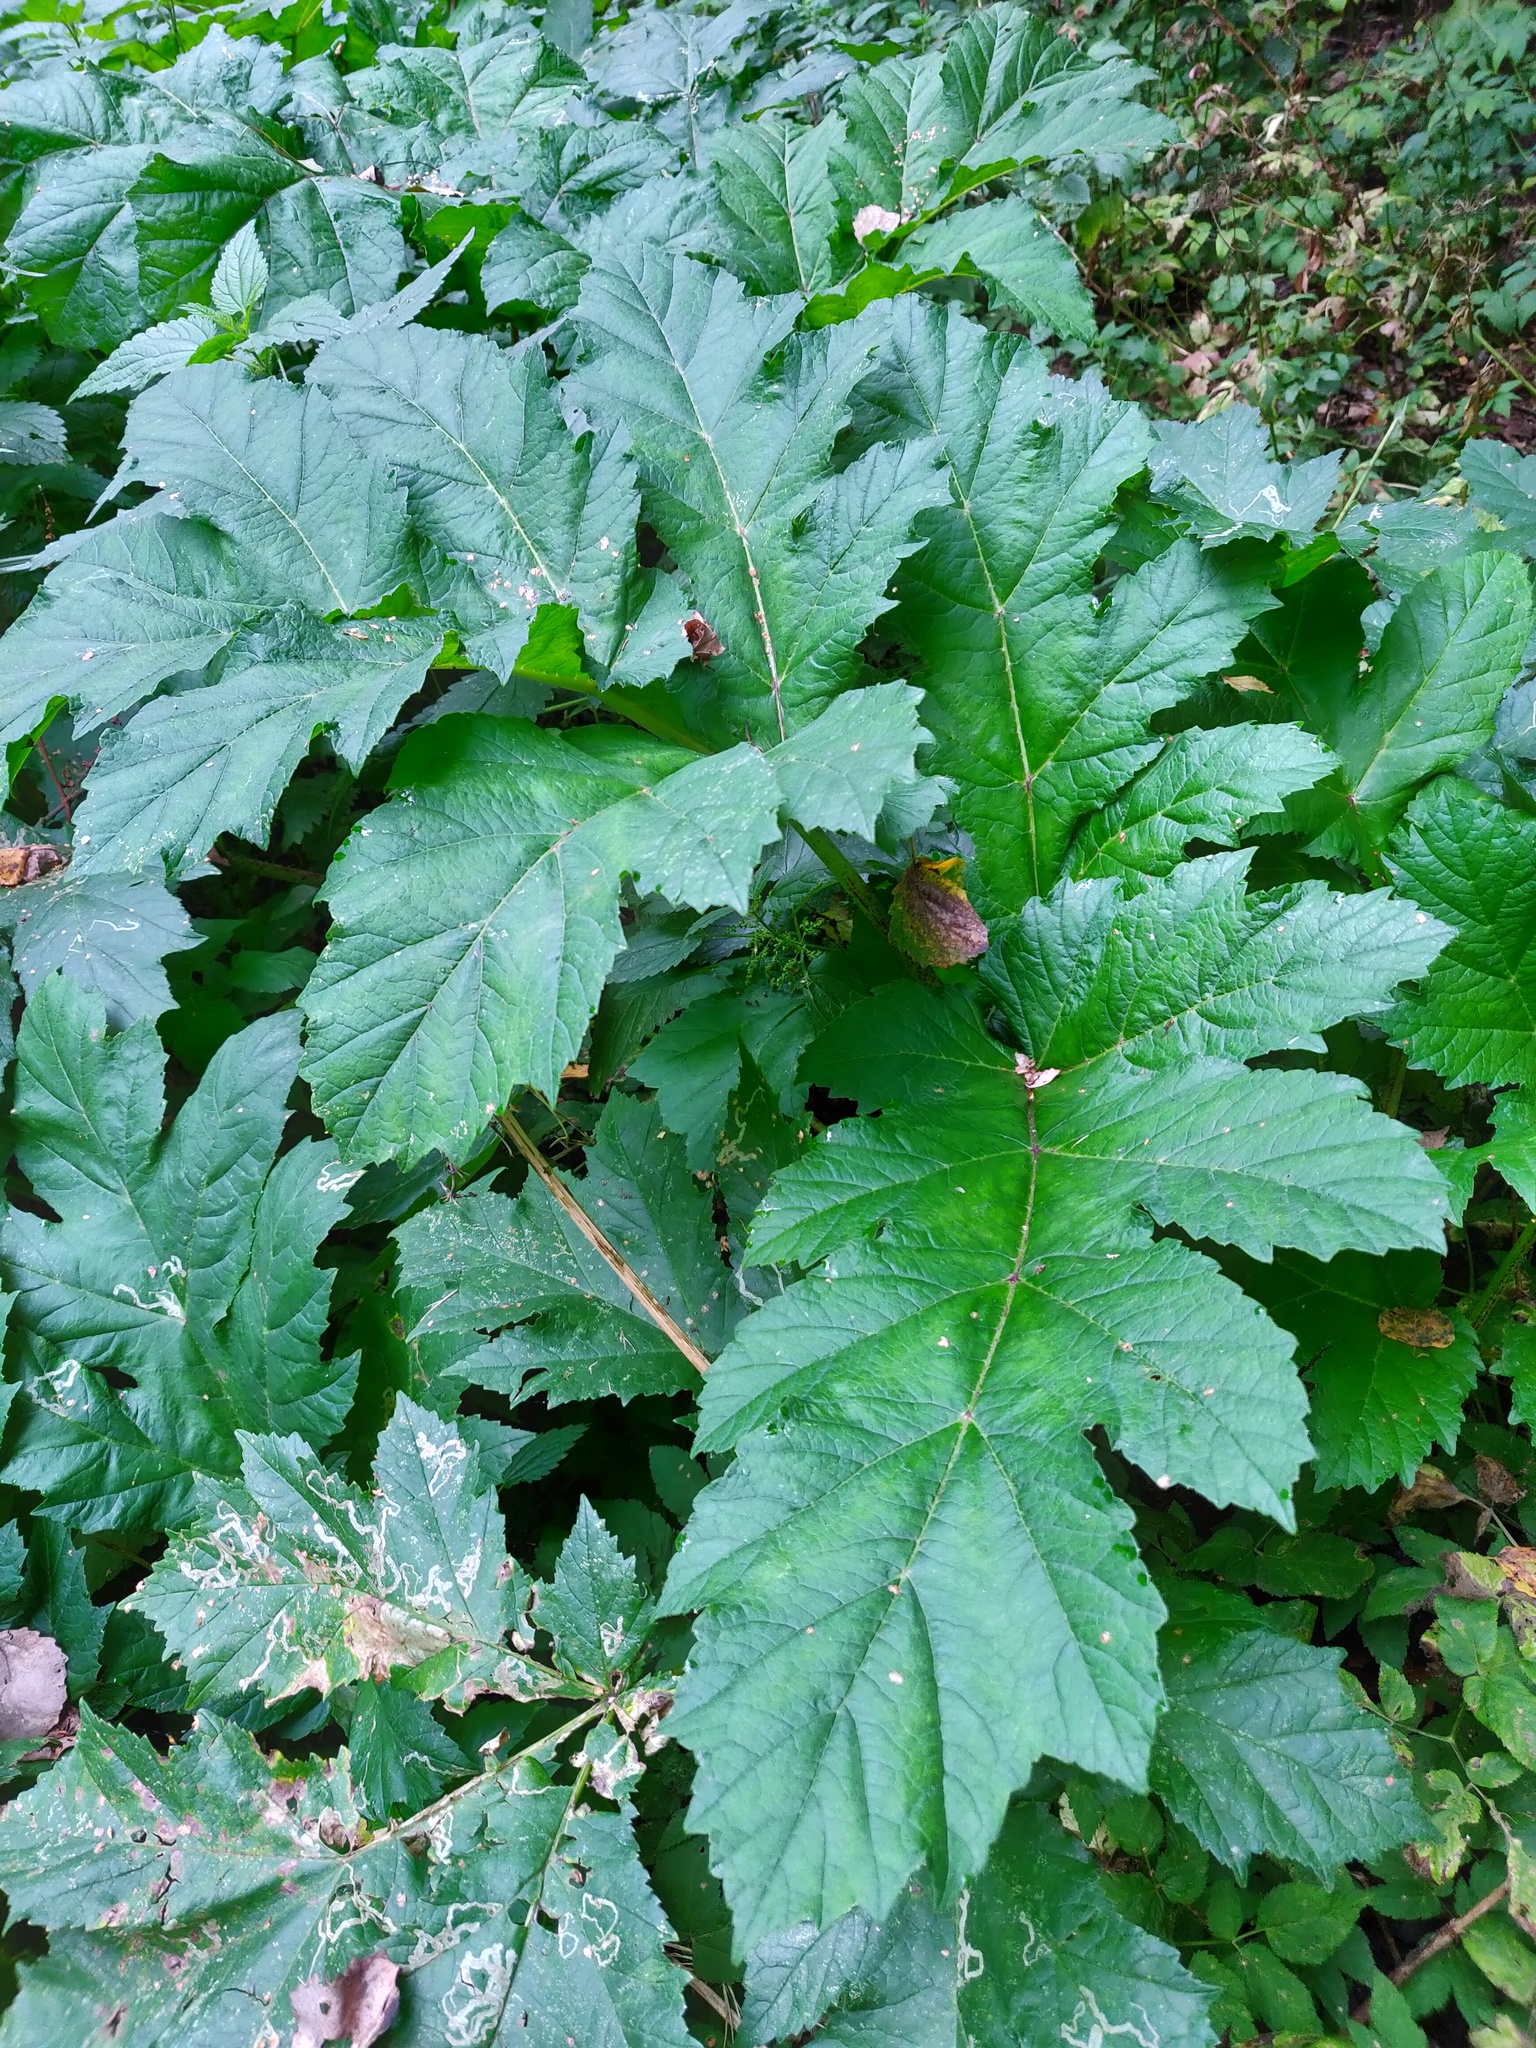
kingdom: Plantae
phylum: Tracheophyta
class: Magnoliopsida
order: Apiales
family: Apiaceae
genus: Heracleum
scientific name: Heracleum sosnowskyi
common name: Sosnowsky's hogweed
